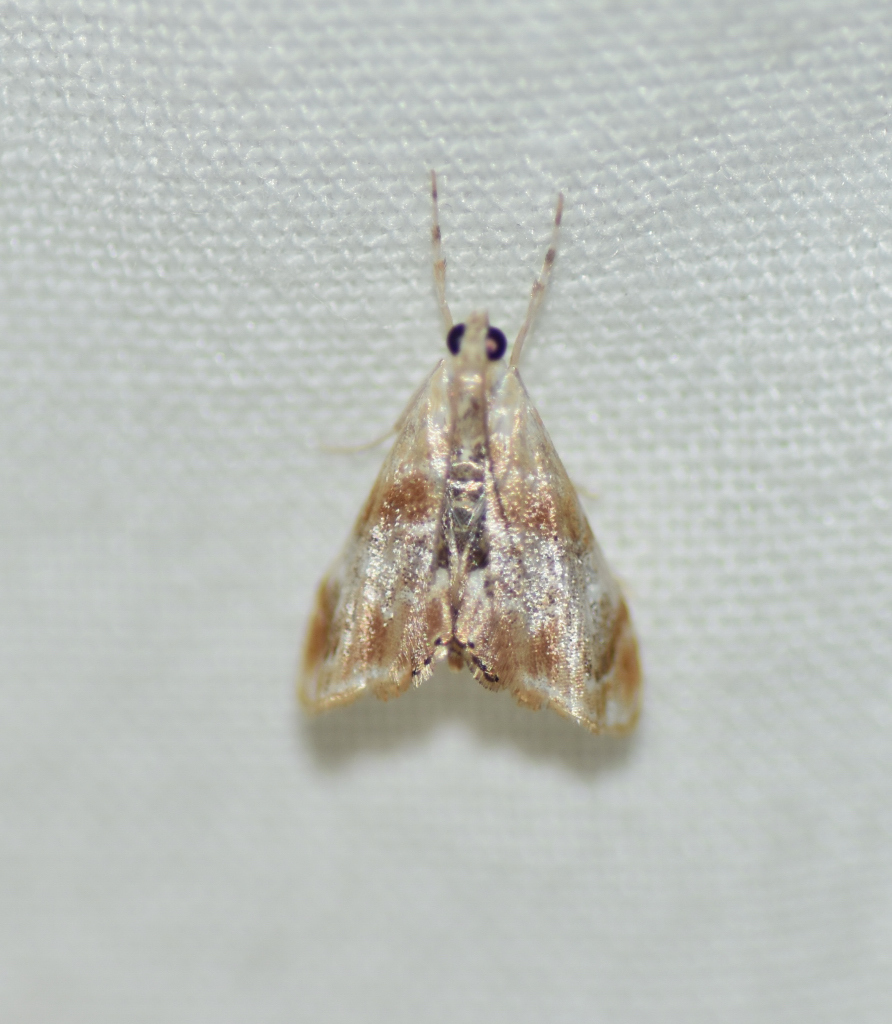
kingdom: Animalia
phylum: Arthropoda
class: Insecta
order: Lepidoptera
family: Crambidae
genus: Dicymolomia
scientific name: Dicymolomia julianalis
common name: Julia's dicymolomia moth
